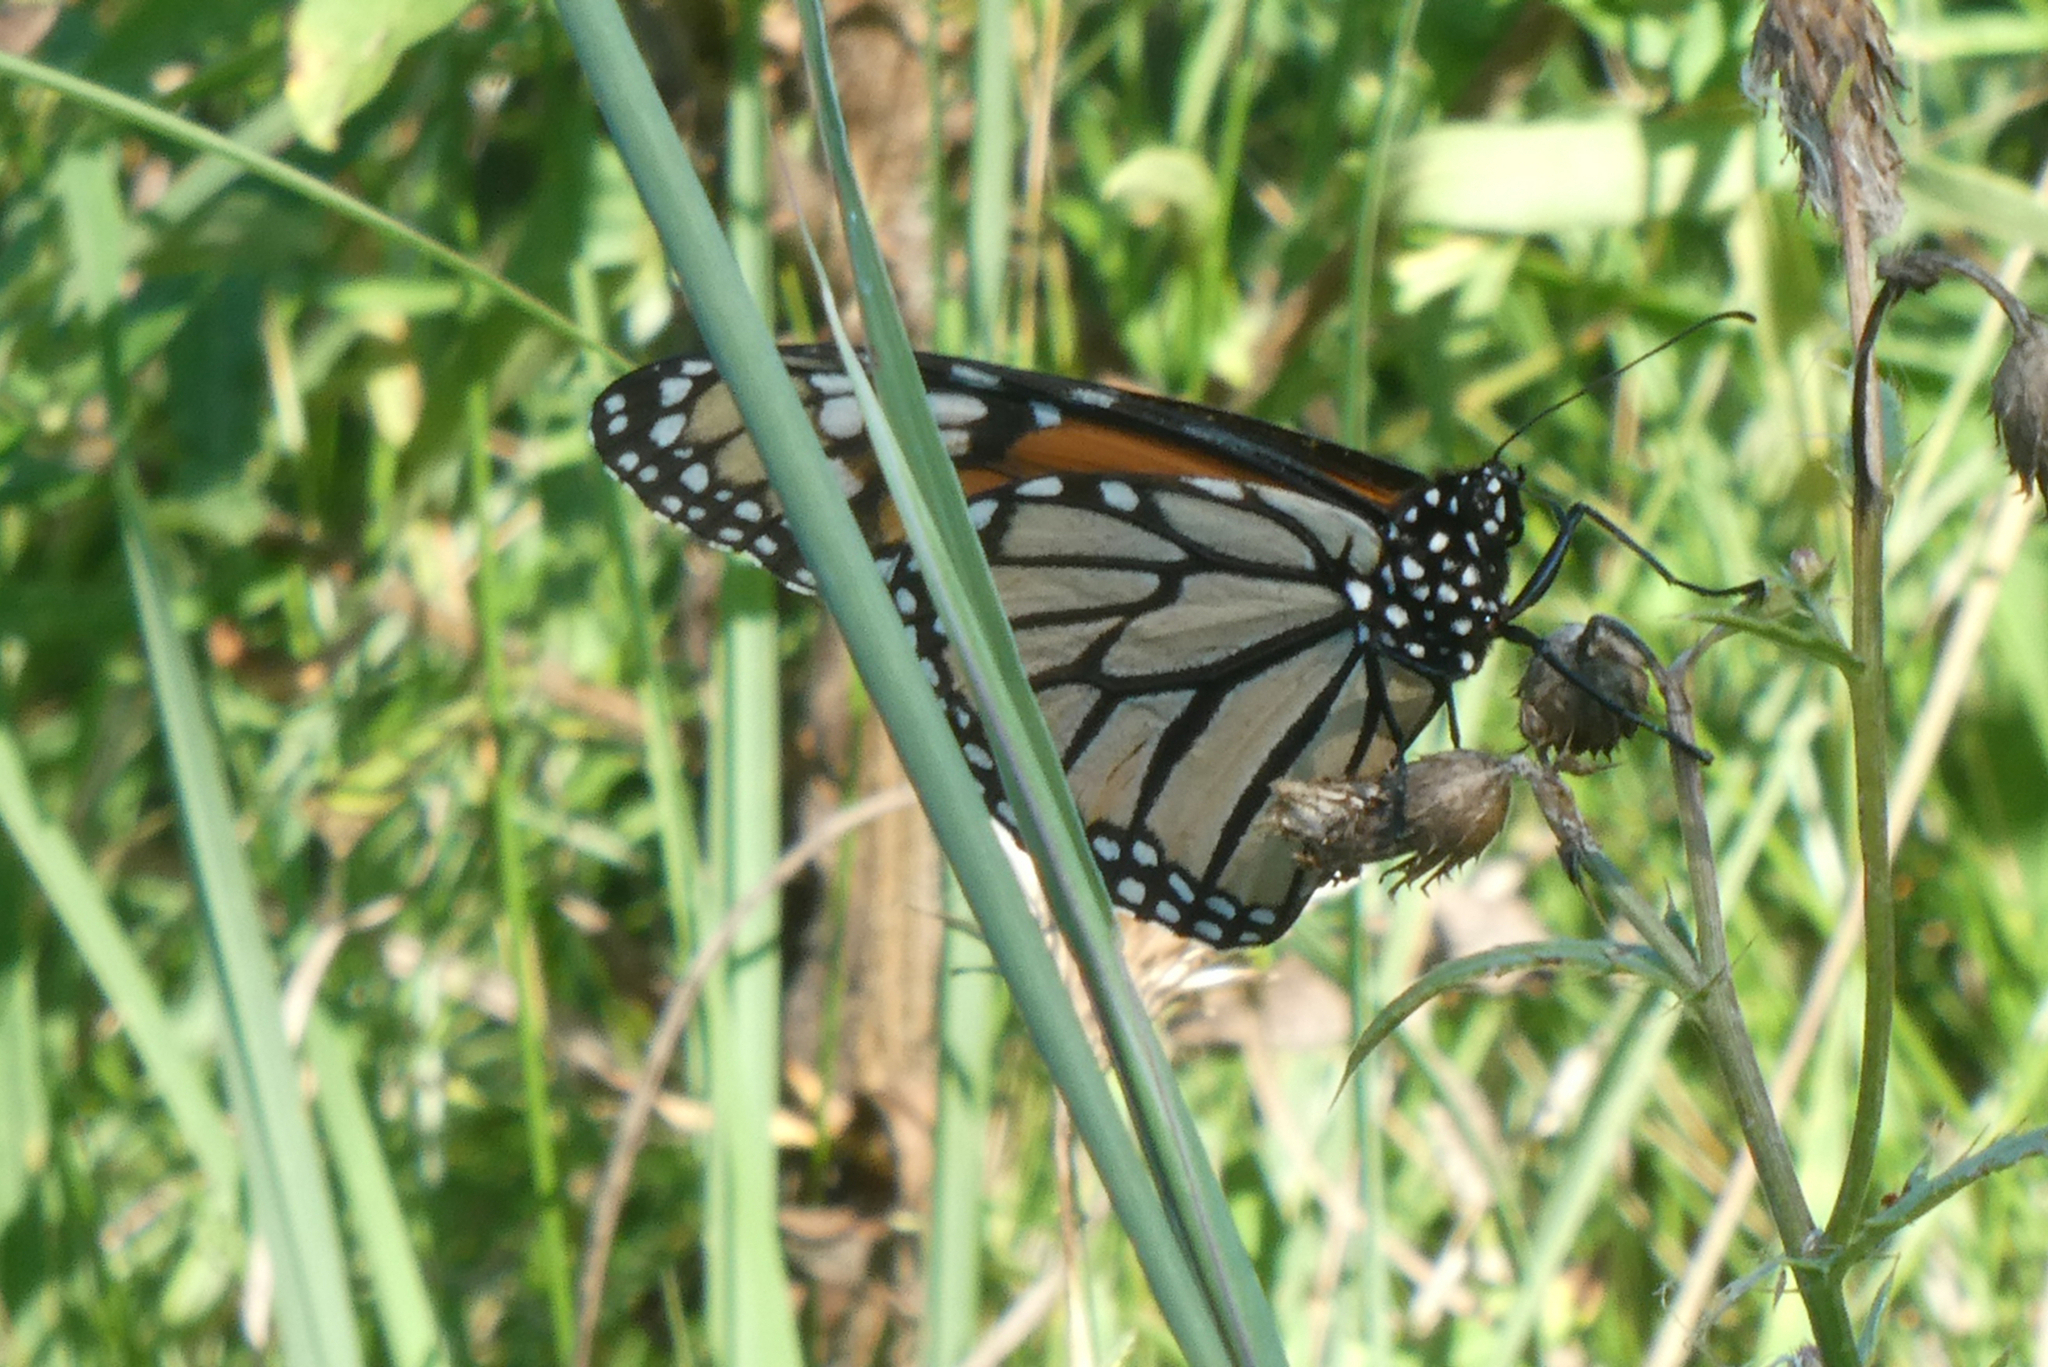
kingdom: Animalia
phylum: Arthropoda
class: Insecta
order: Lepidoptera
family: Nymphalidae
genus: Danaus
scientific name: Danaus plexippus
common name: Monarch
